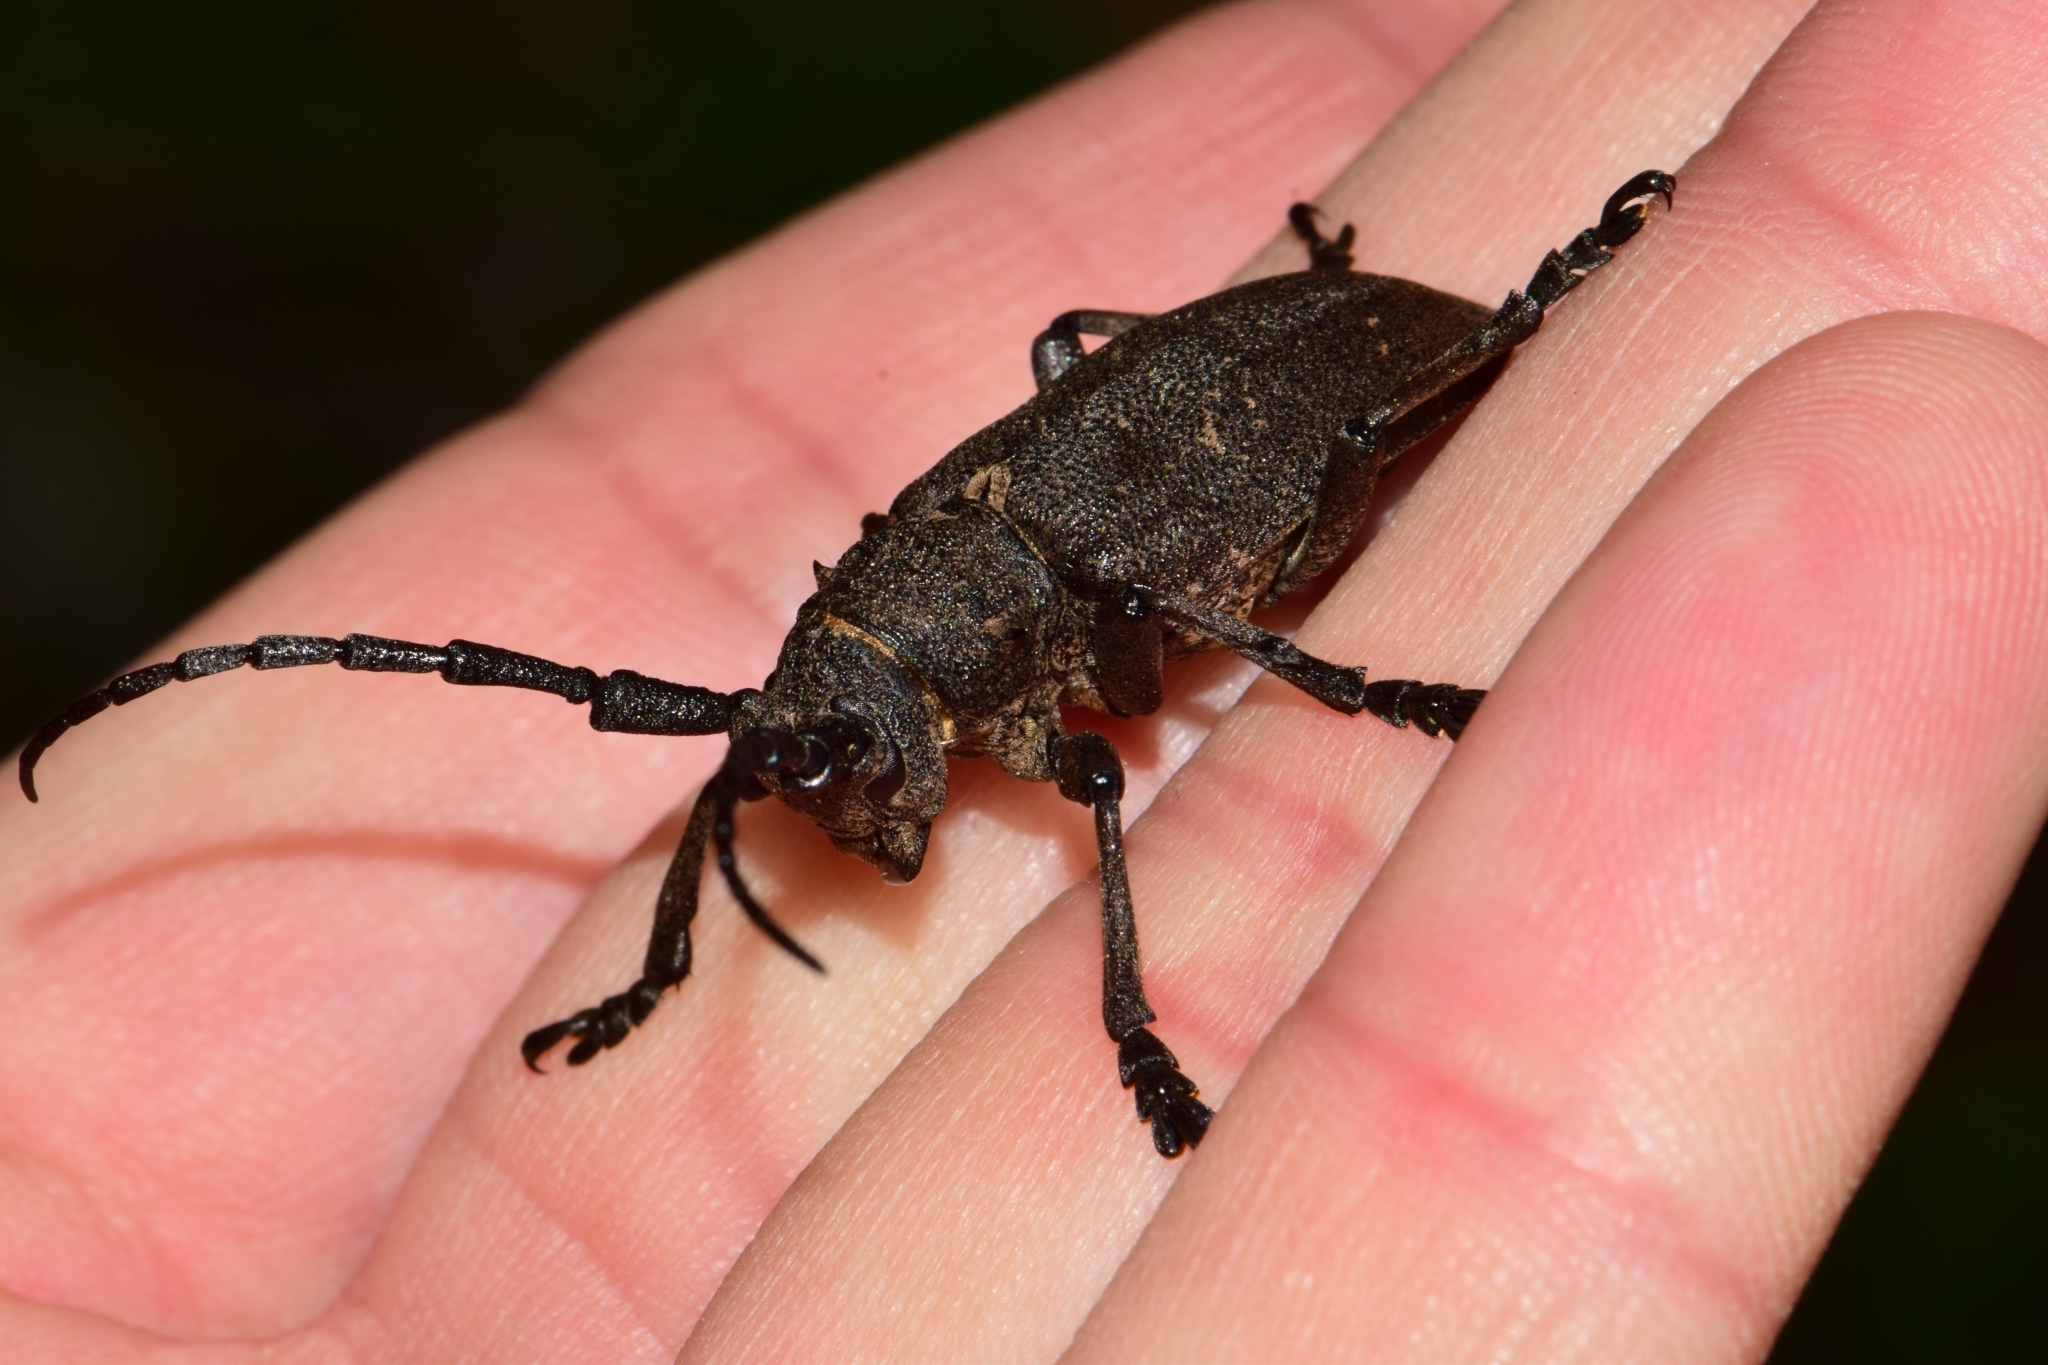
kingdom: Animalia
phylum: Arthropoda
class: Insecta
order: Coleoptera
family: Cerambycidae
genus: Lamia
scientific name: Lamia textor
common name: Weaver beetle
